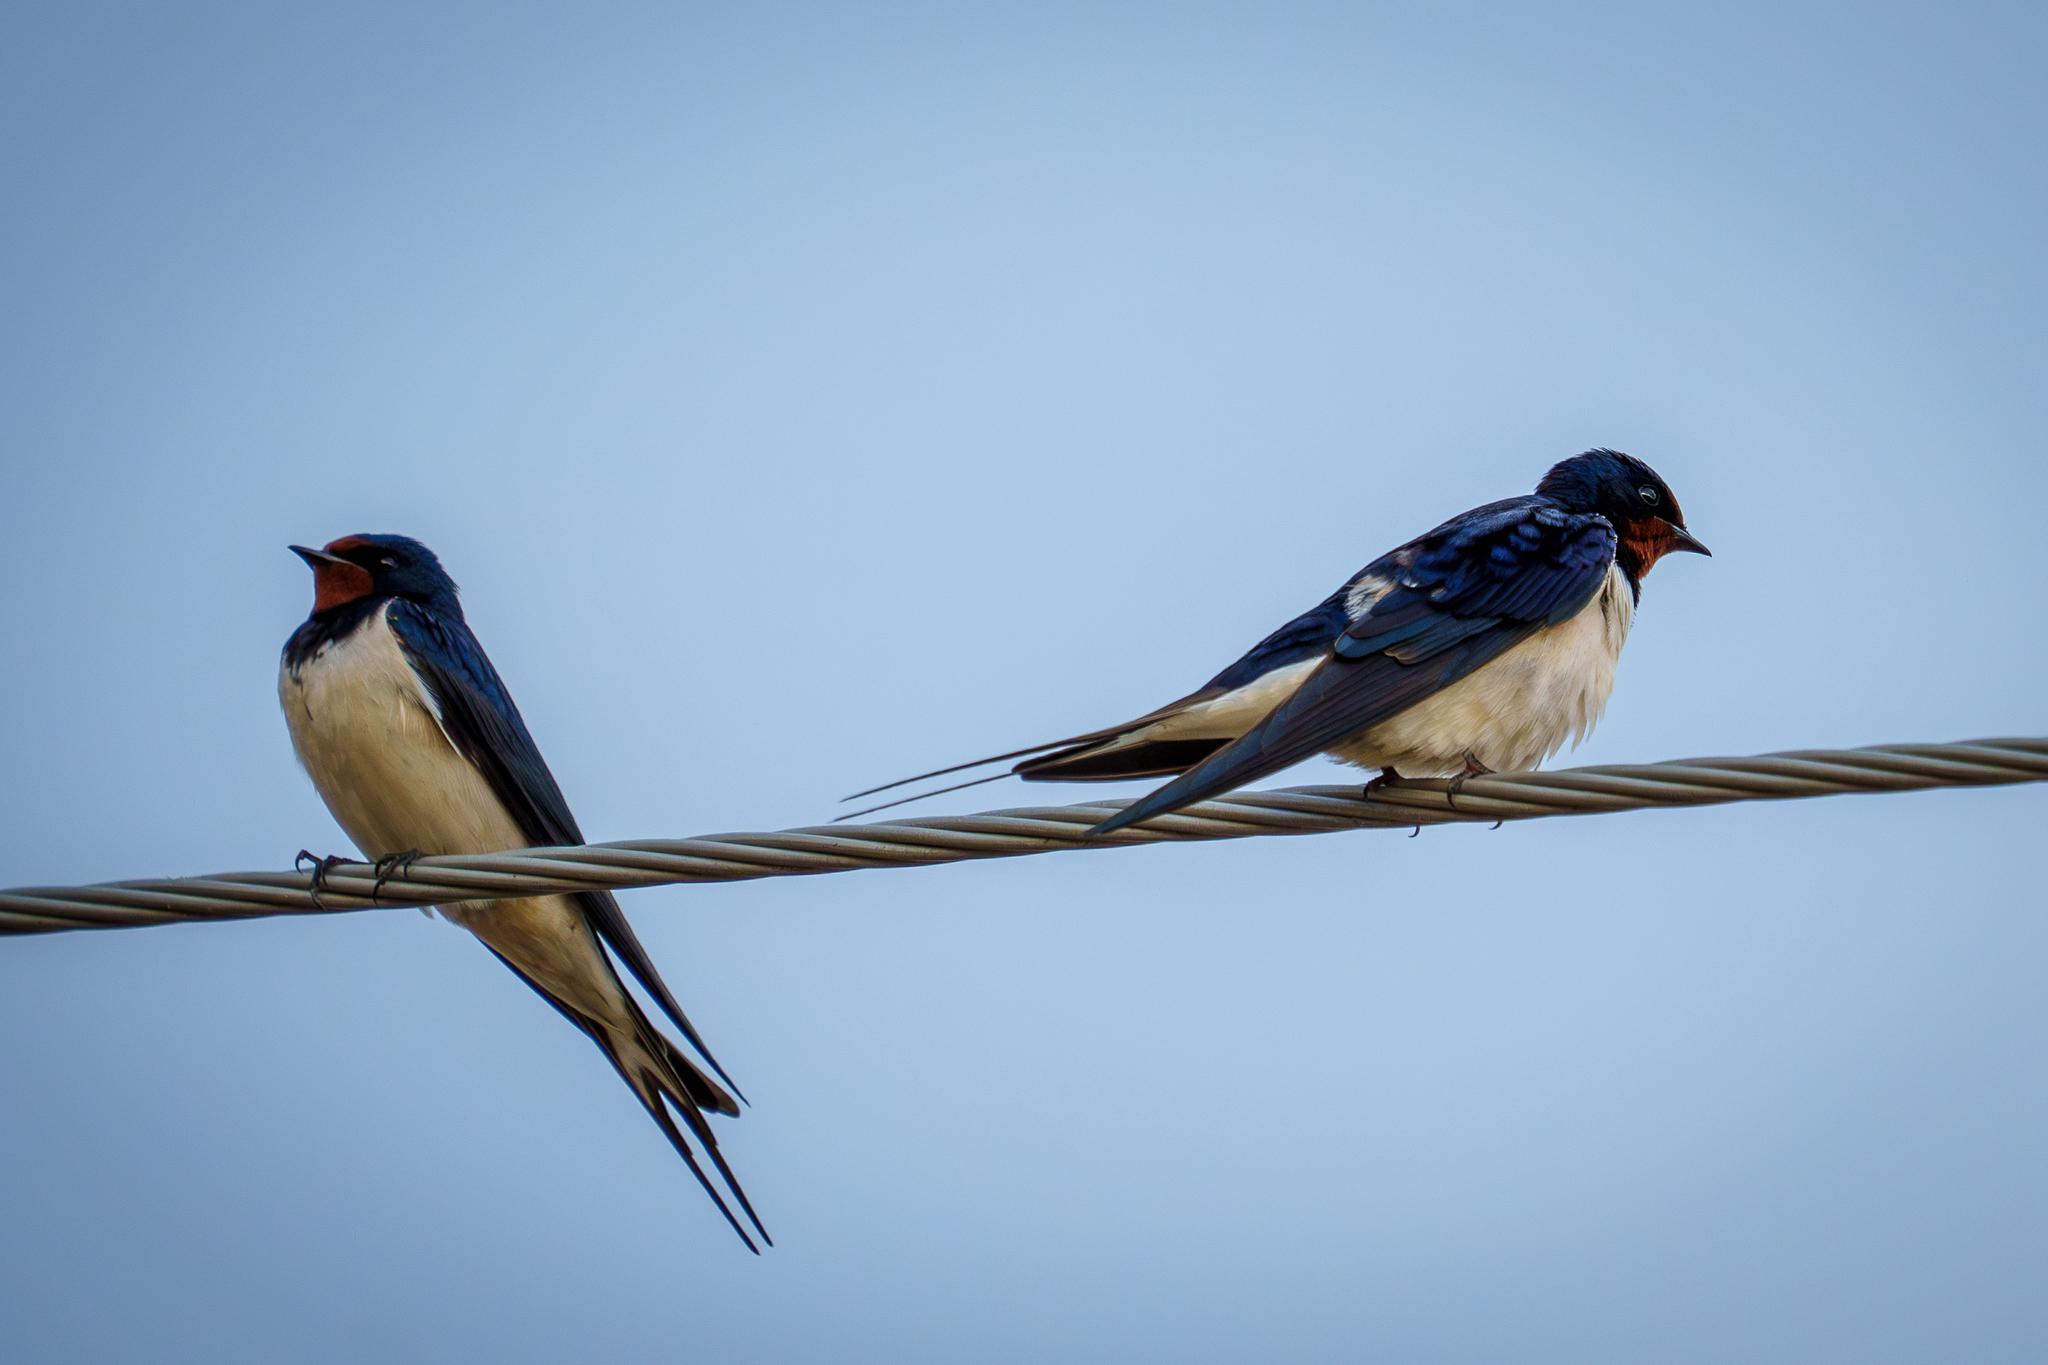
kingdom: Animalia
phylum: Chordata
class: Aves
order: Passeriformes
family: Hirundinidae
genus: Hirundo
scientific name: Hirundo rustica
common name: Barn swallow
